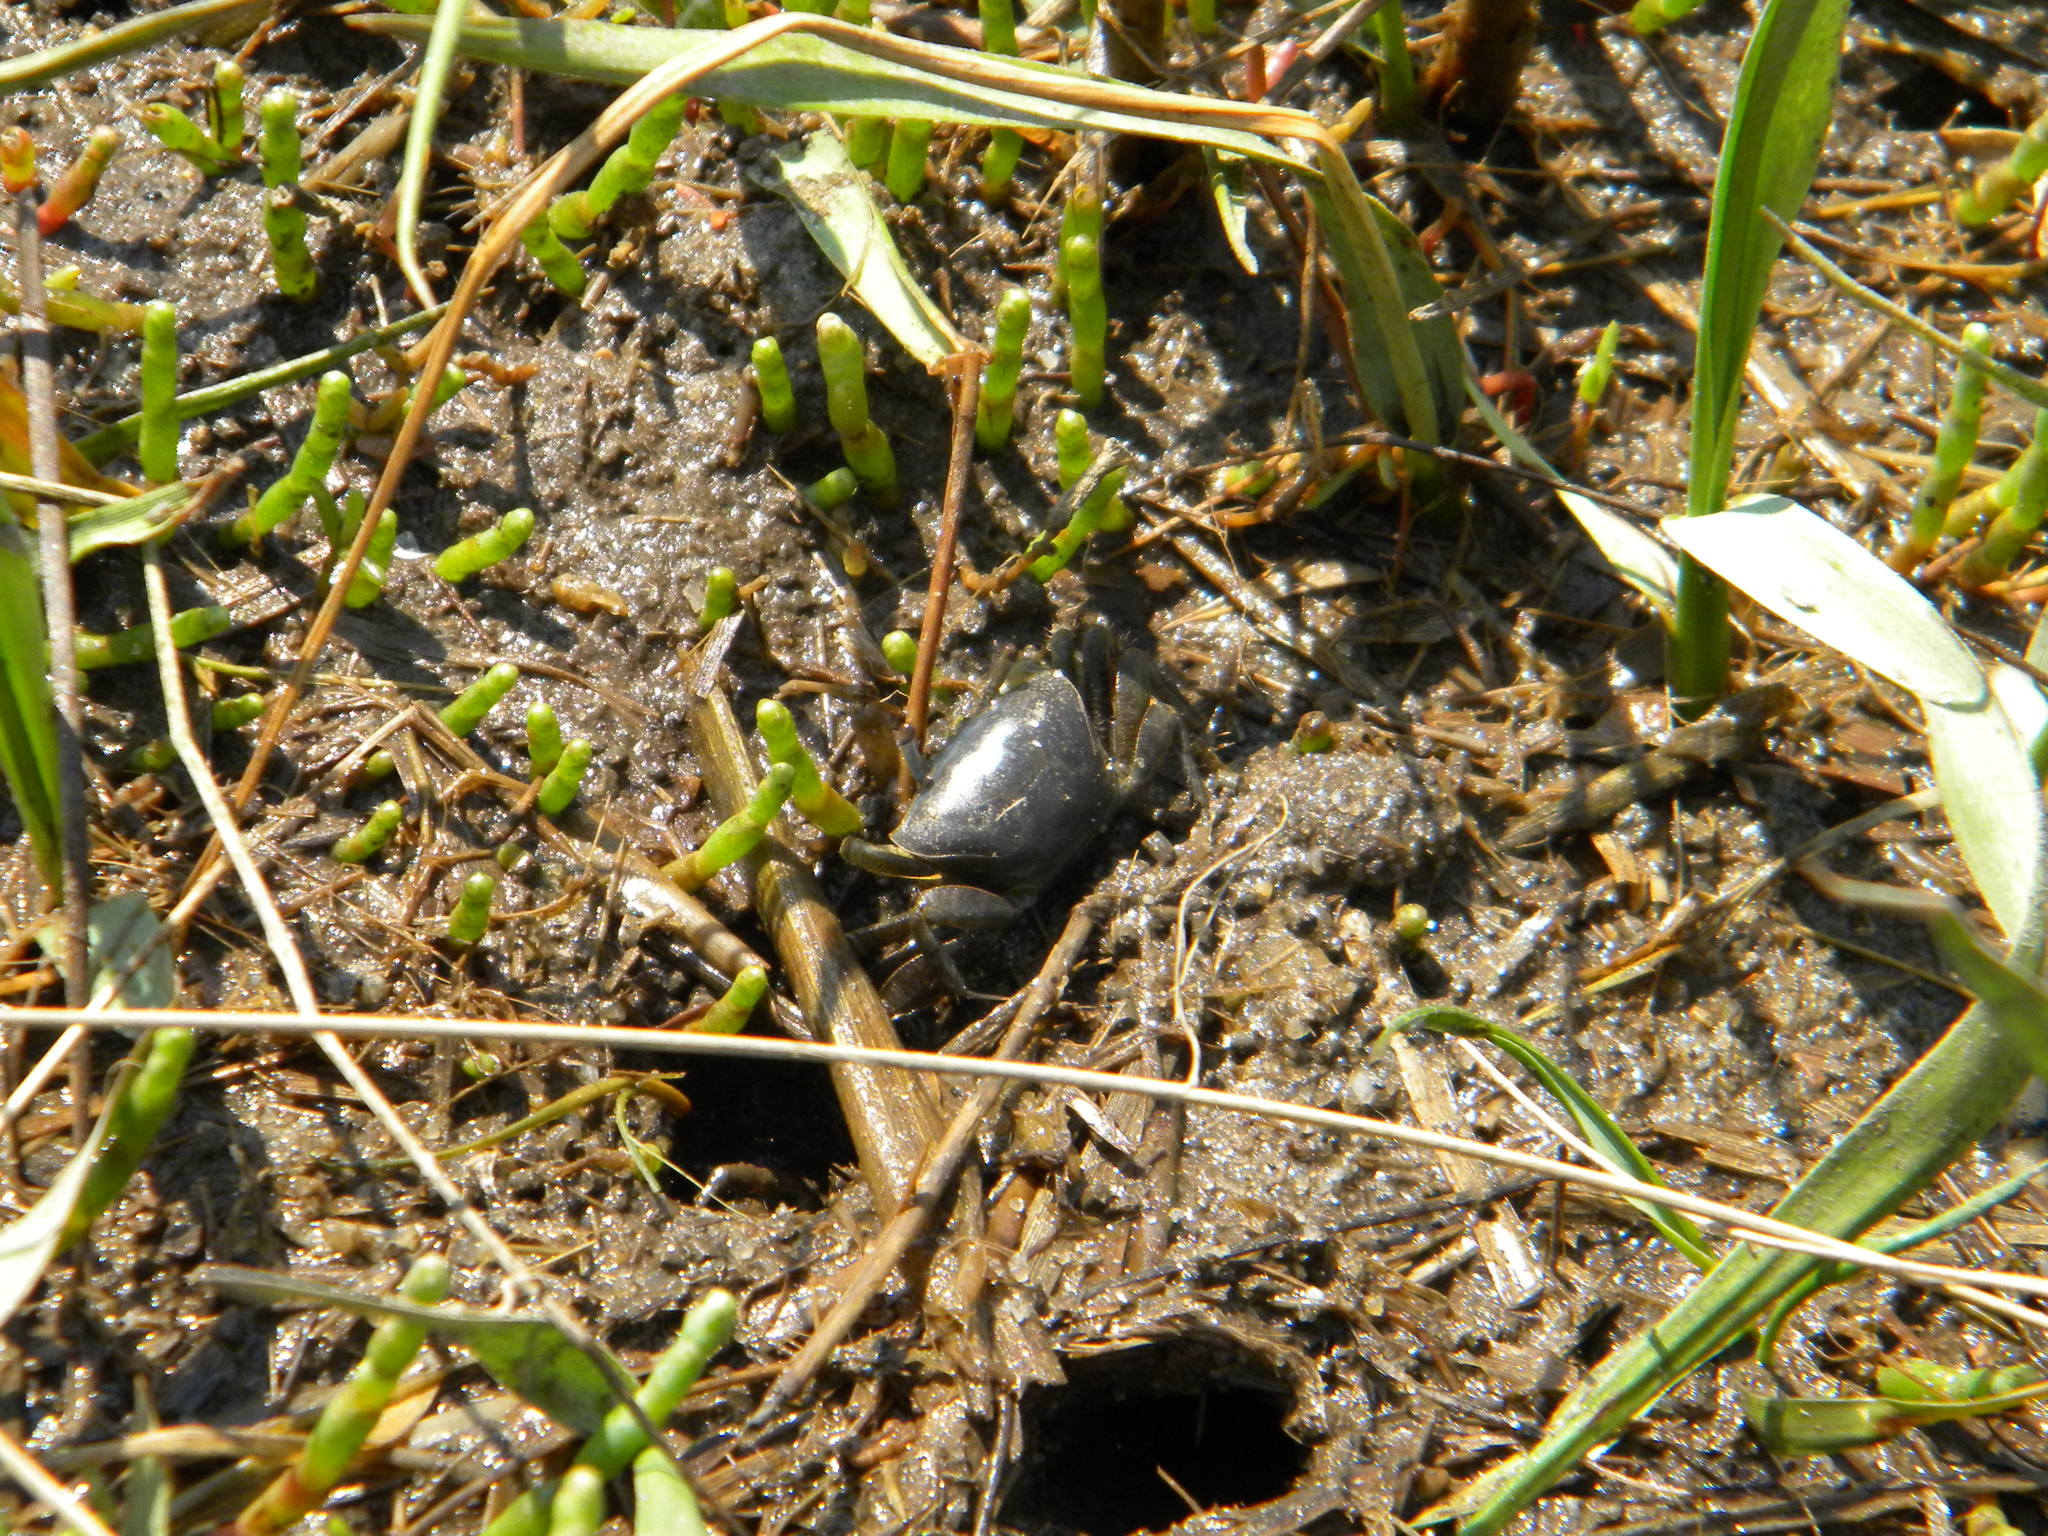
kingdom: Animalia
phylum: Arthropoda
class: Malacostraca
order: Decapoda
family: Ocypodidae
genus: Minuca
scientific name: Minuca pugnax
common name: Mud fiddler crab
